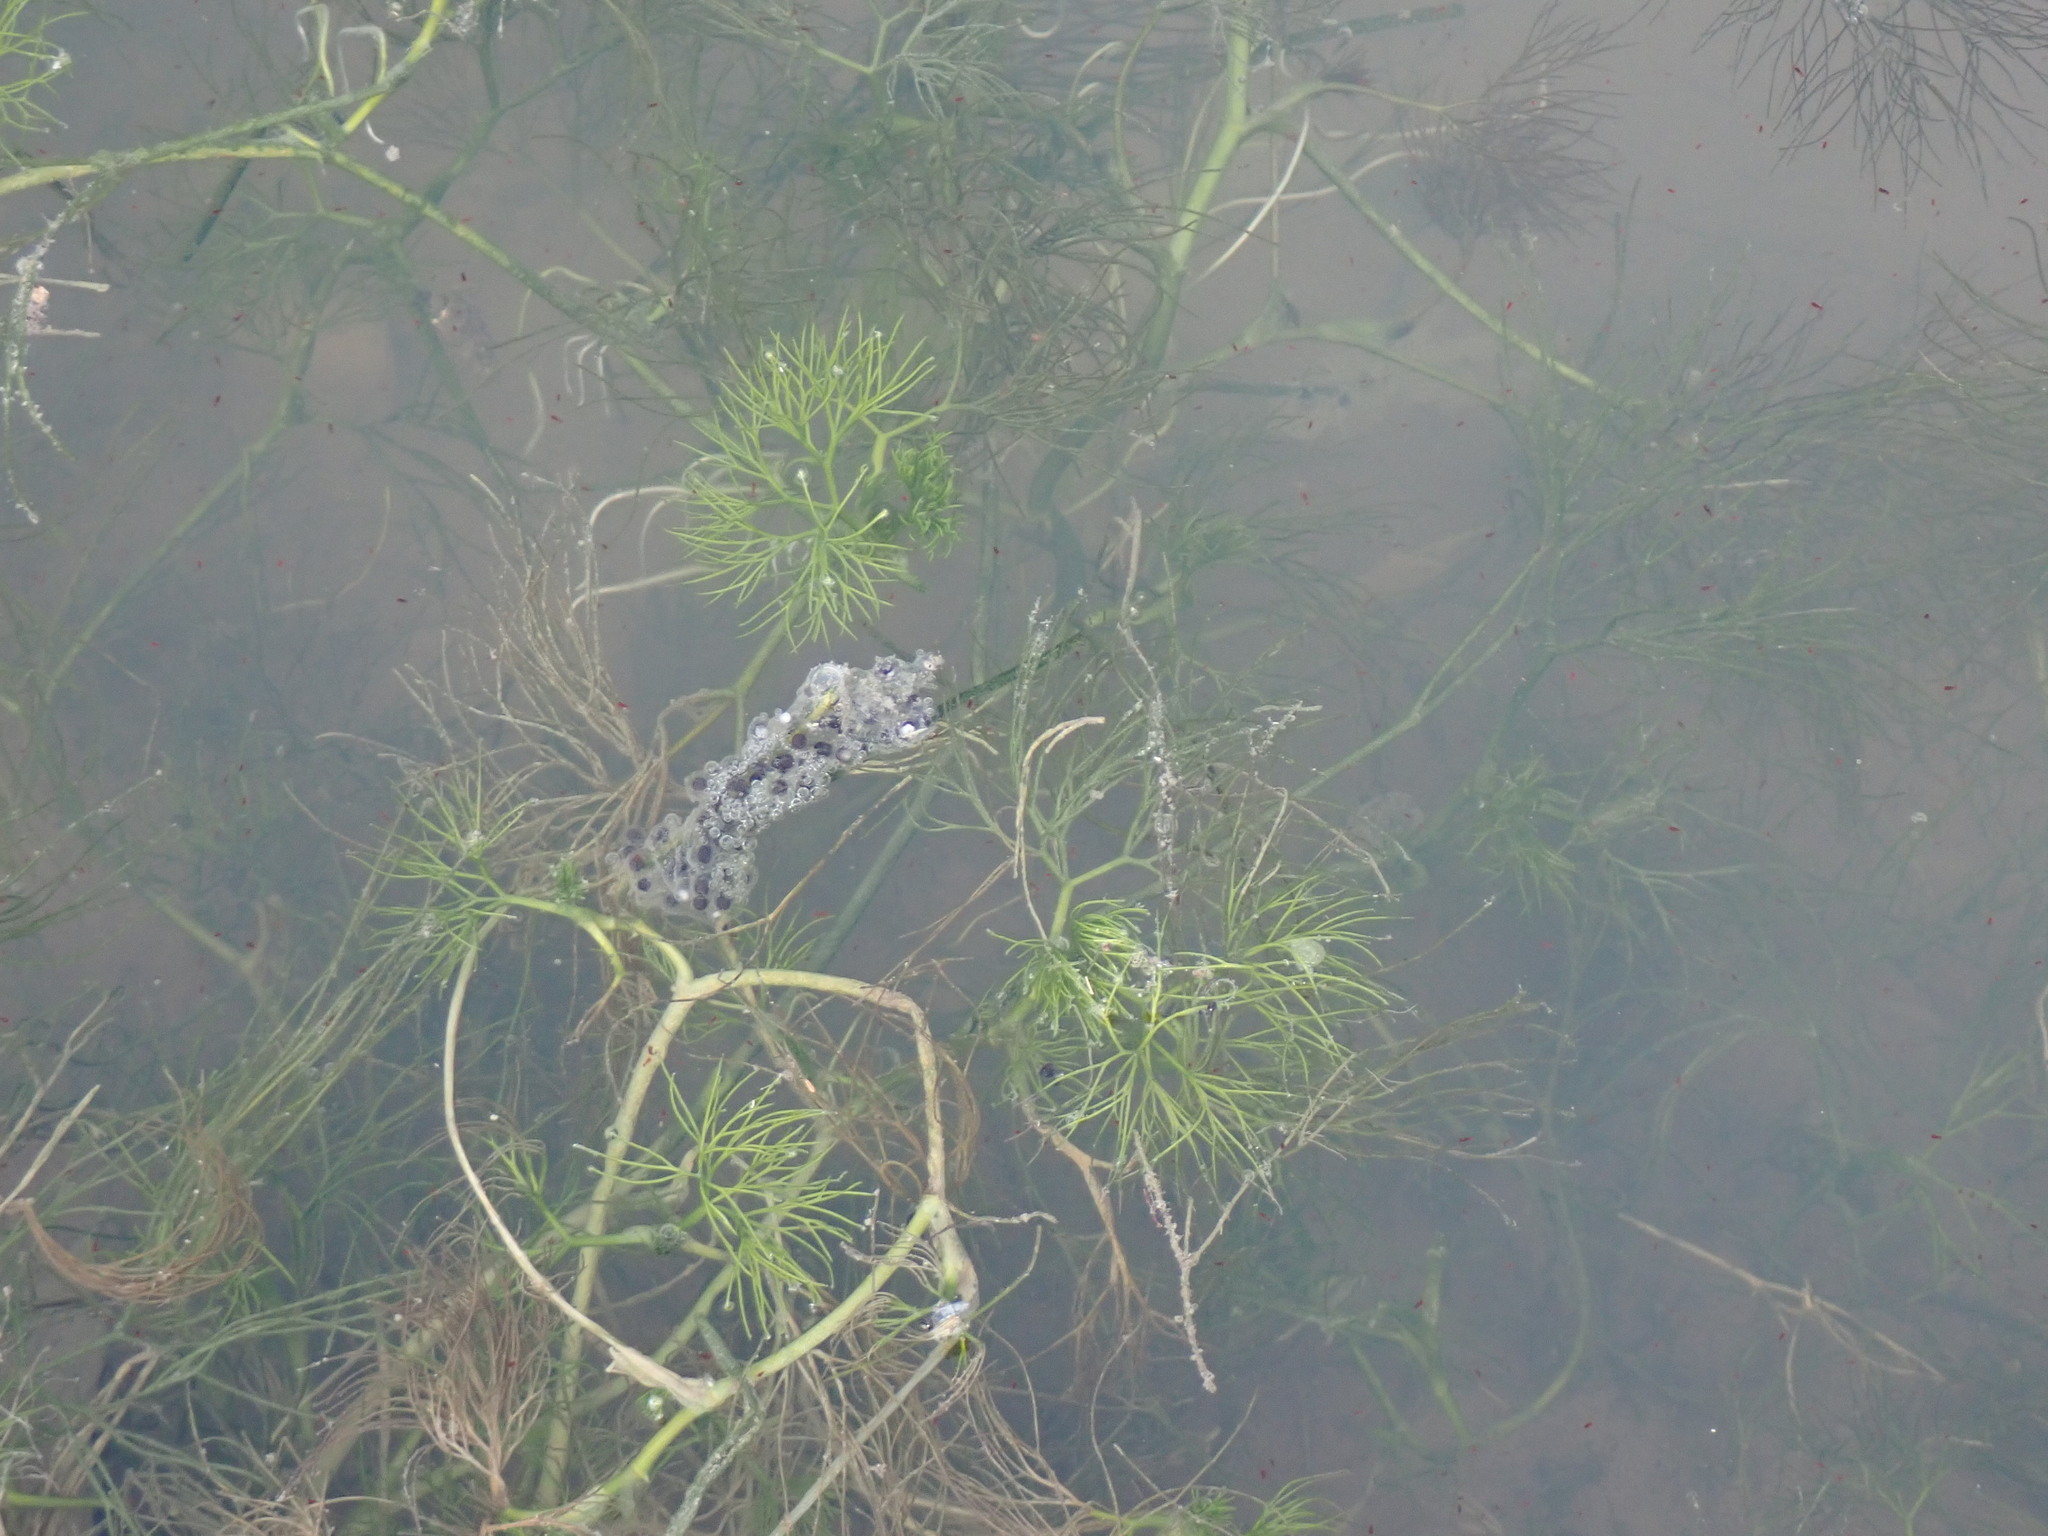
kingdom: Animalia
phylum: Chordata
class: Amphibia
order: Anura
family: Pelodytidae
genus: Pelodytes
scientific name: Pelodytes punctatus
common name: Parsley frog
